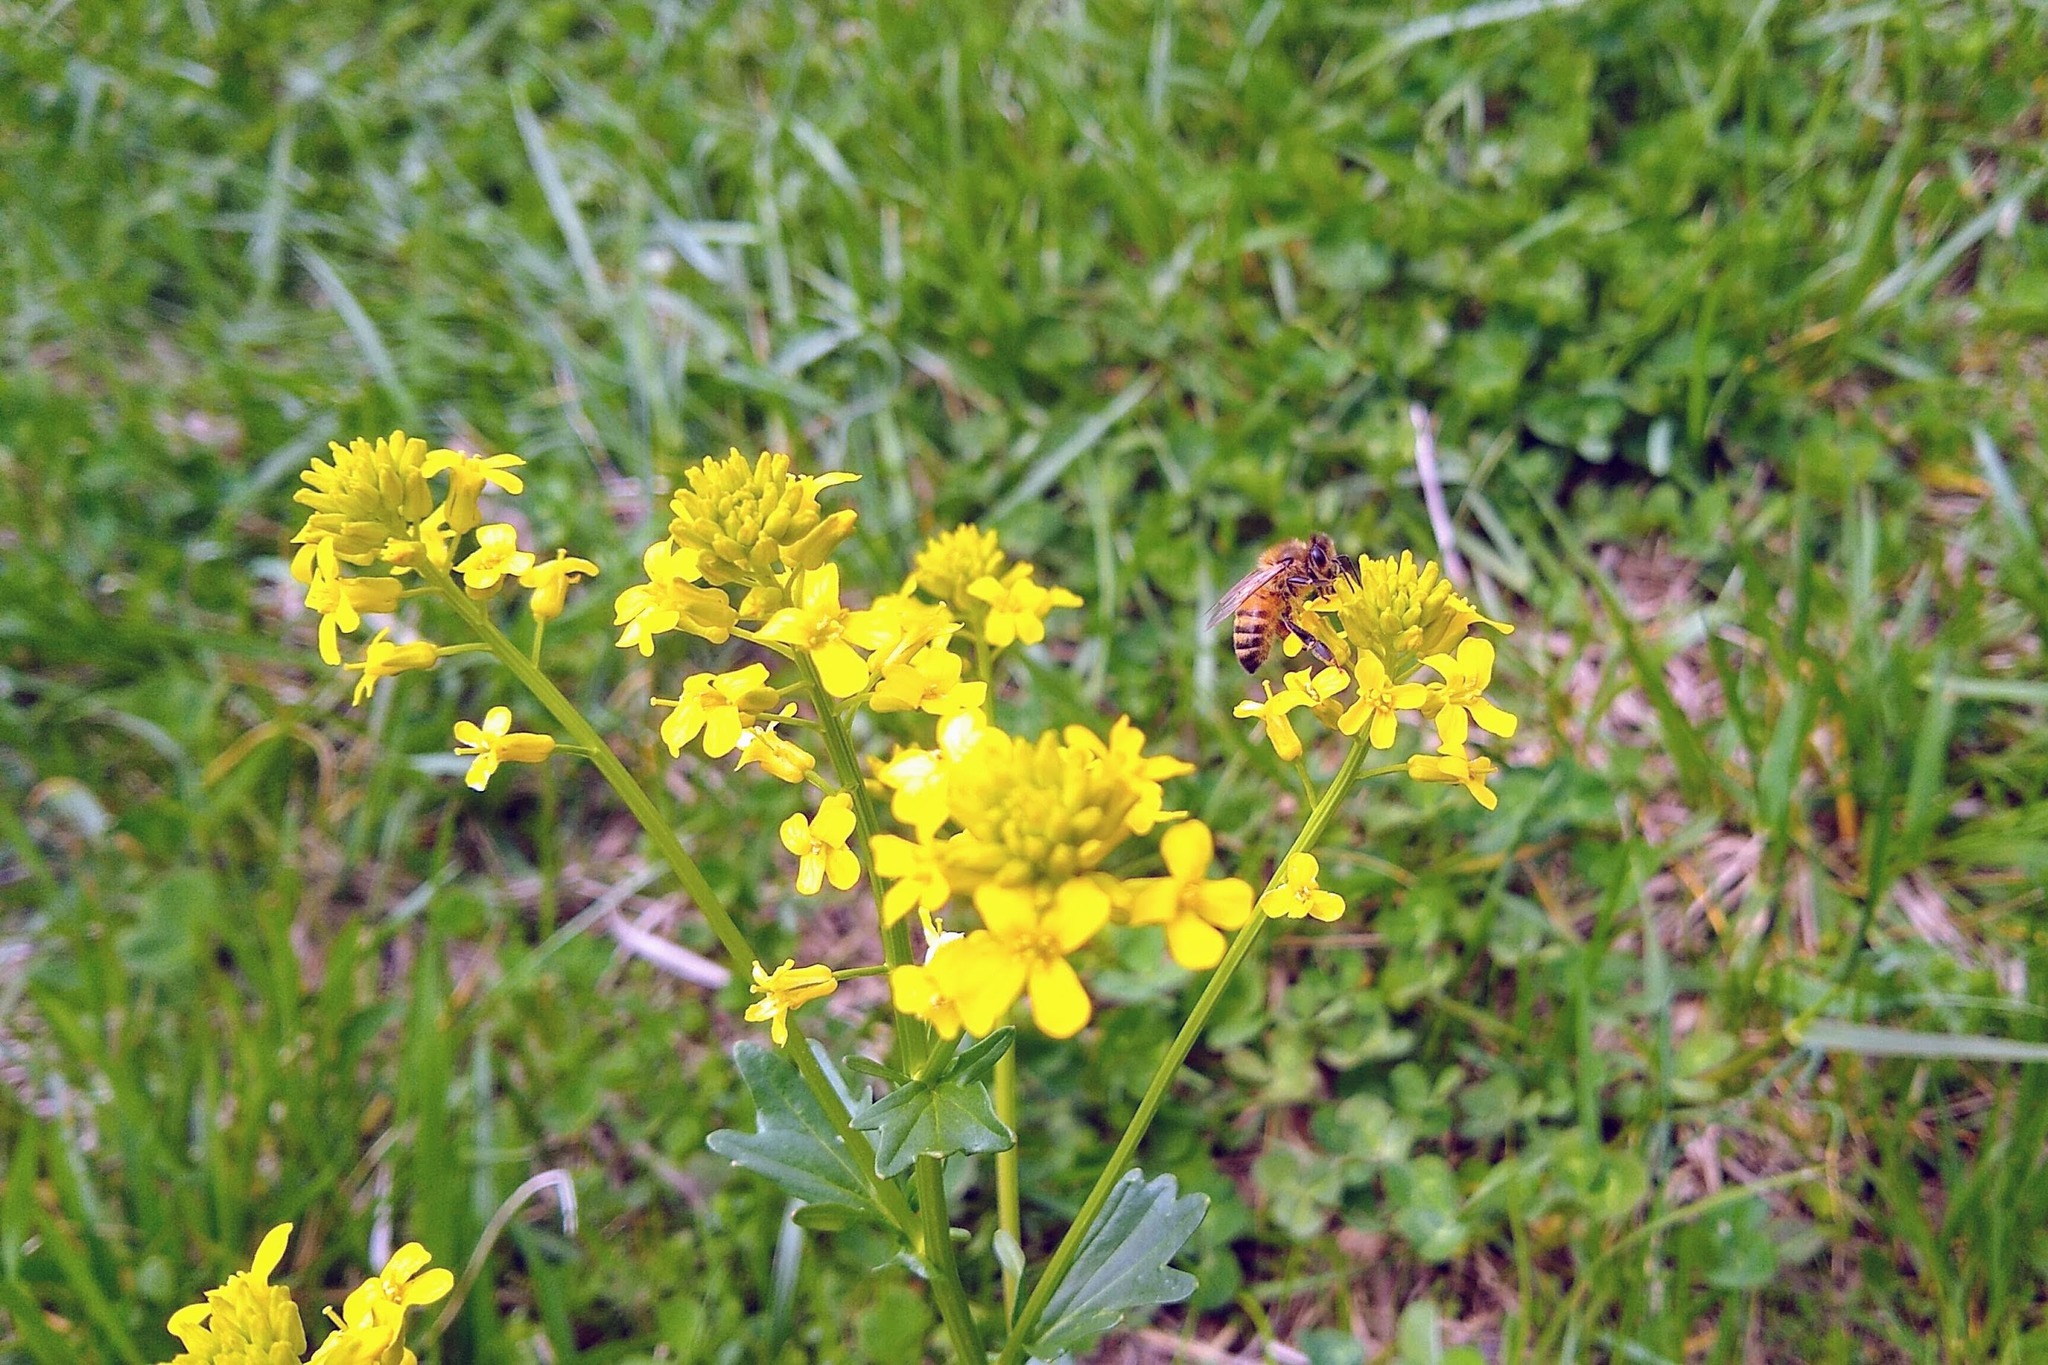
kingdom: Plantae
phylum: Tracheophyta
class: Magnoliopsida
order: Brassicales
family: Brassicaceae
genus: Barbarea
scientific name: Barbarea vulgaris
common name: Cressy-greens
